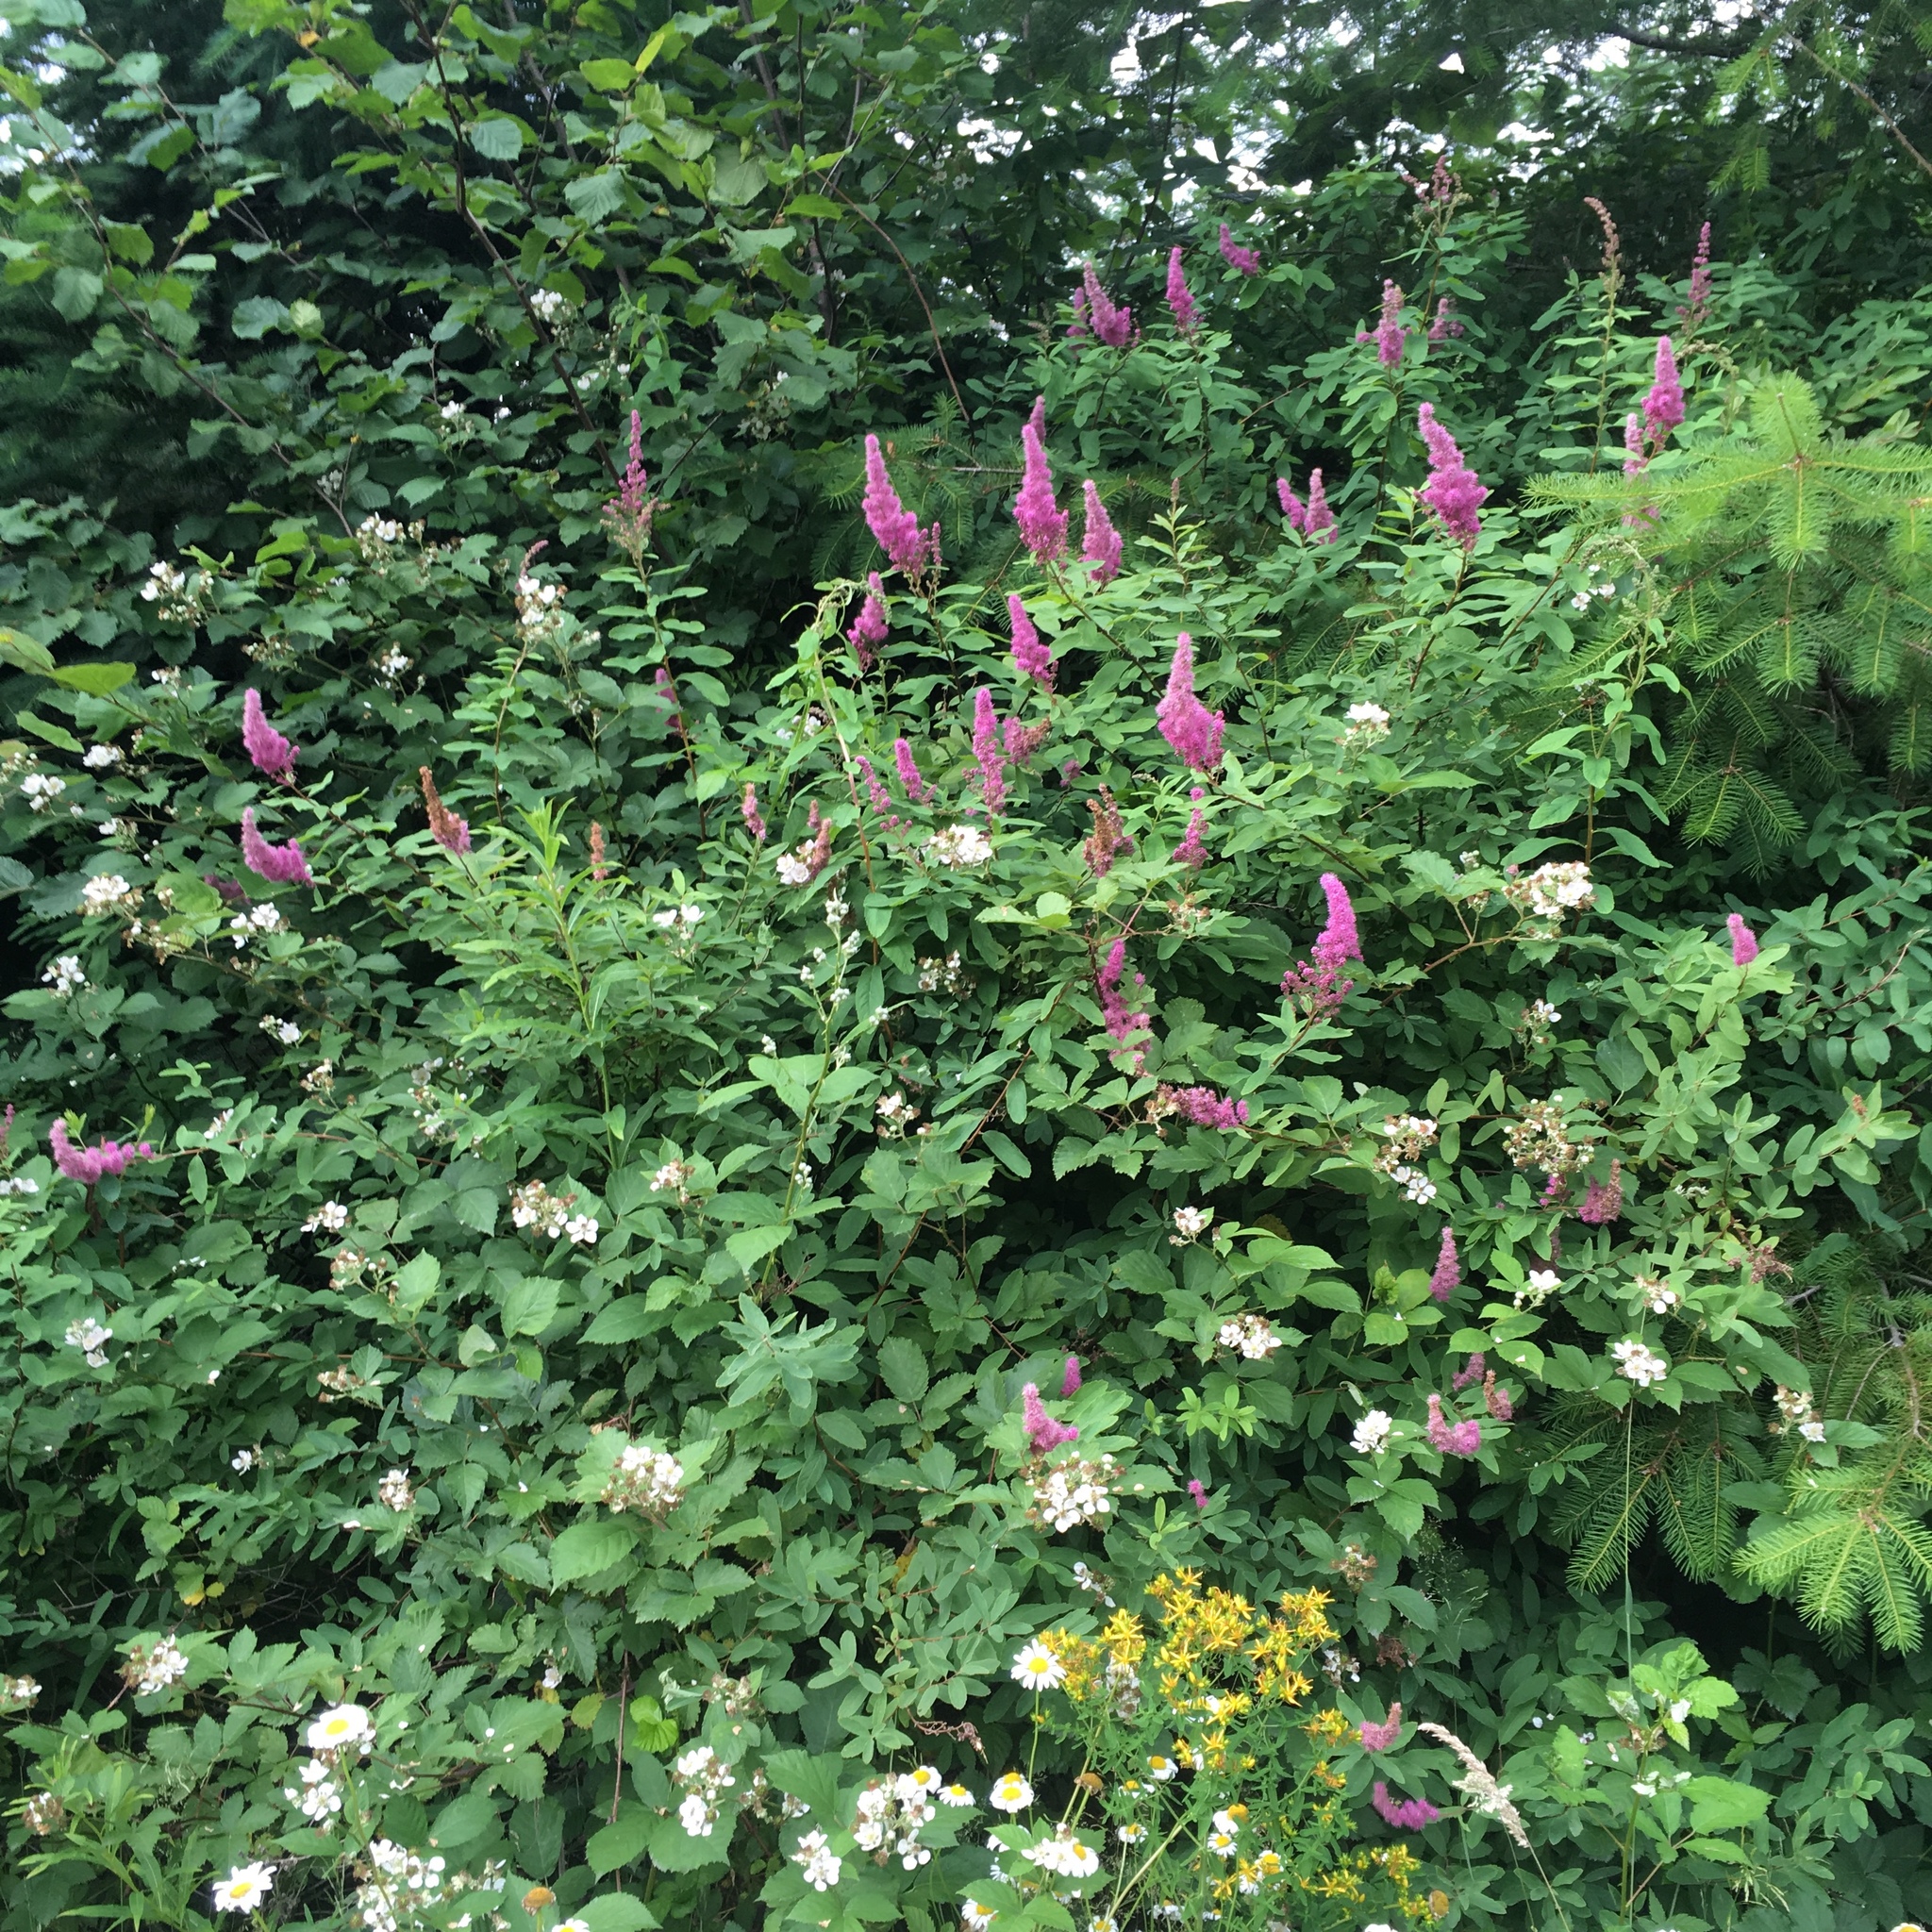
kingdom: Plantae
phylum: Tracheophyta
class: Magnoliopsida
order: Rosales
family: Rosaceae
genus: Spiraea
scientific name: Spiraea douglasii
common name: Steeplebush
